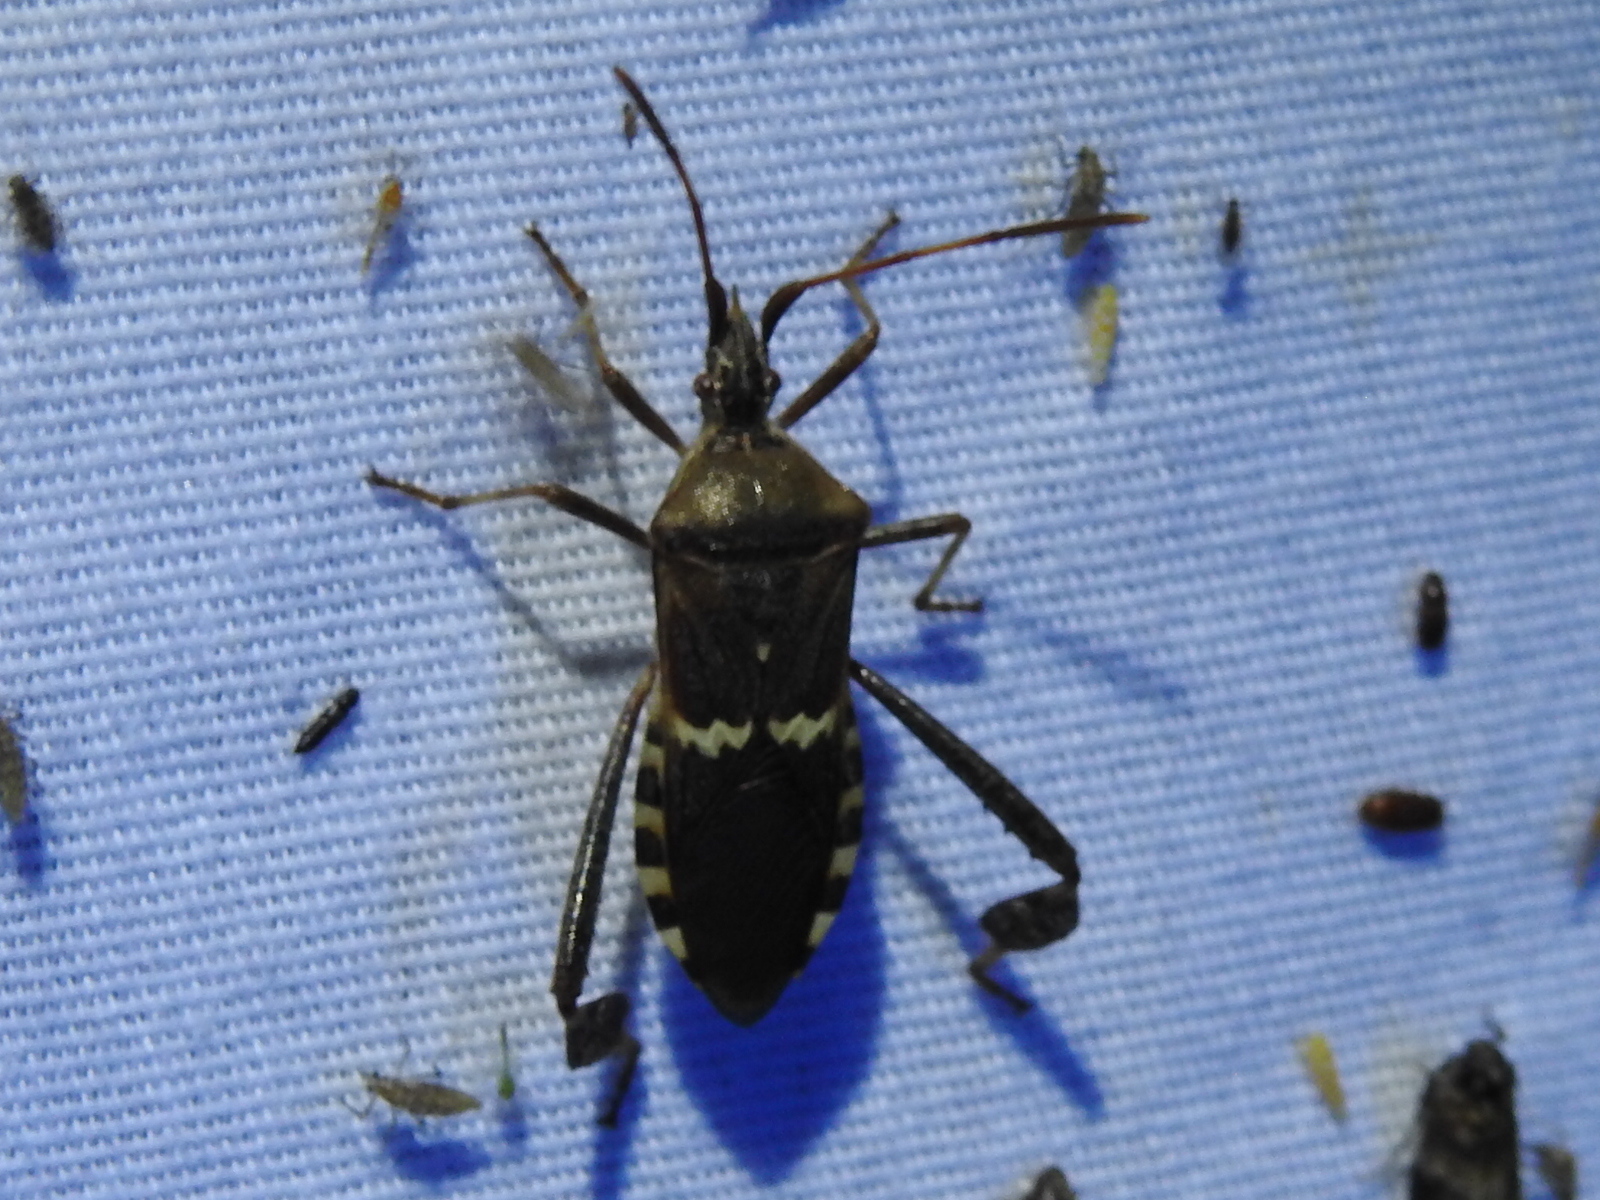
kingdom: Animalia
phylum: Arthropoda
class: Insecta
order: Hemiptera
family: Coreidae
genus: Leptoglossus
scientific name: Leptoglossus clypealis
